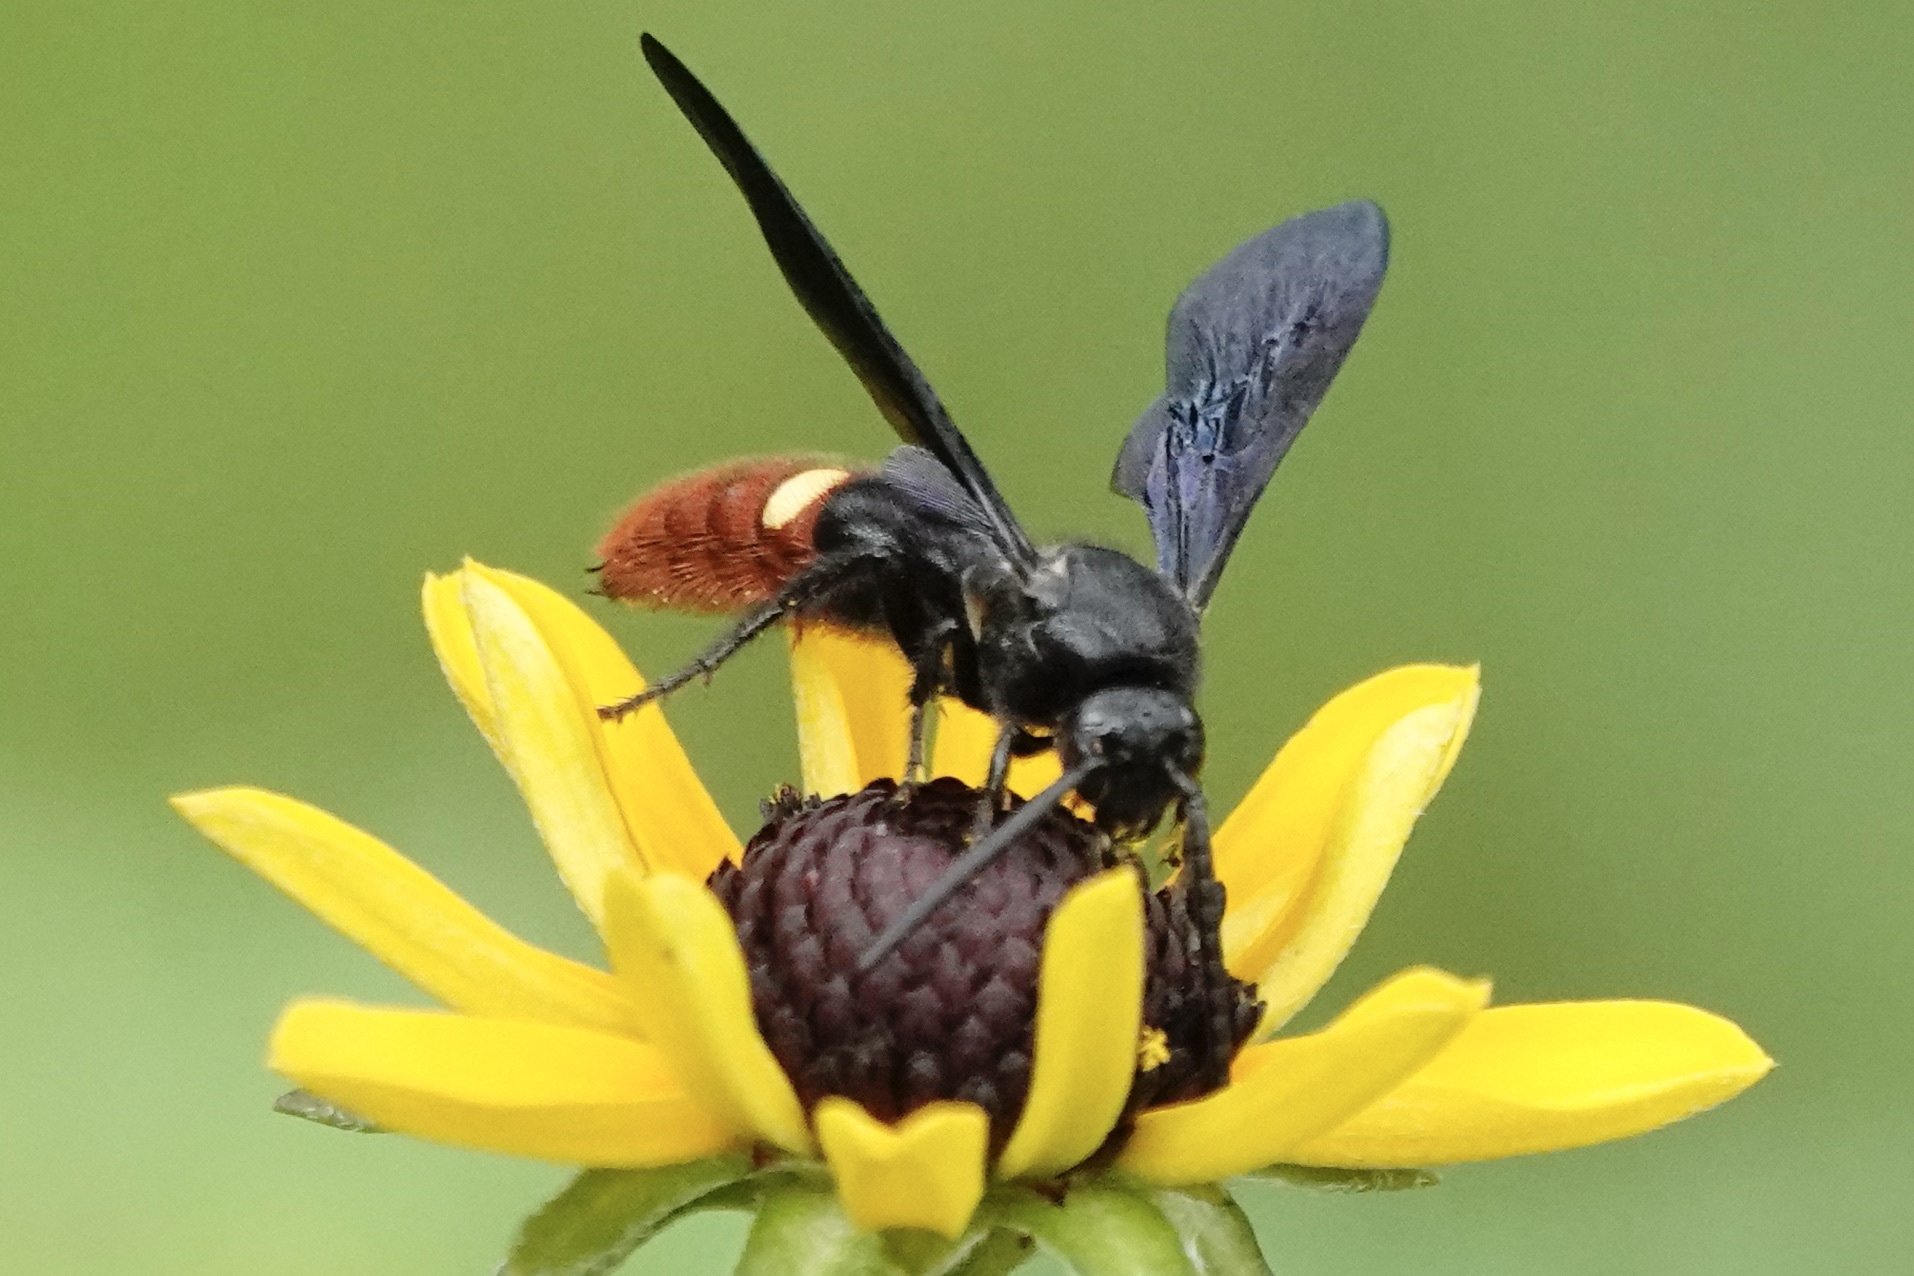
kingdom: Animalia
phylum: Arthropoda
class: Insecta
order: Hymenoptera
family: Scoliidae
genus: Scolia
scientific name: Scolia dubia
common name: Blue-winged scoliid wasp
